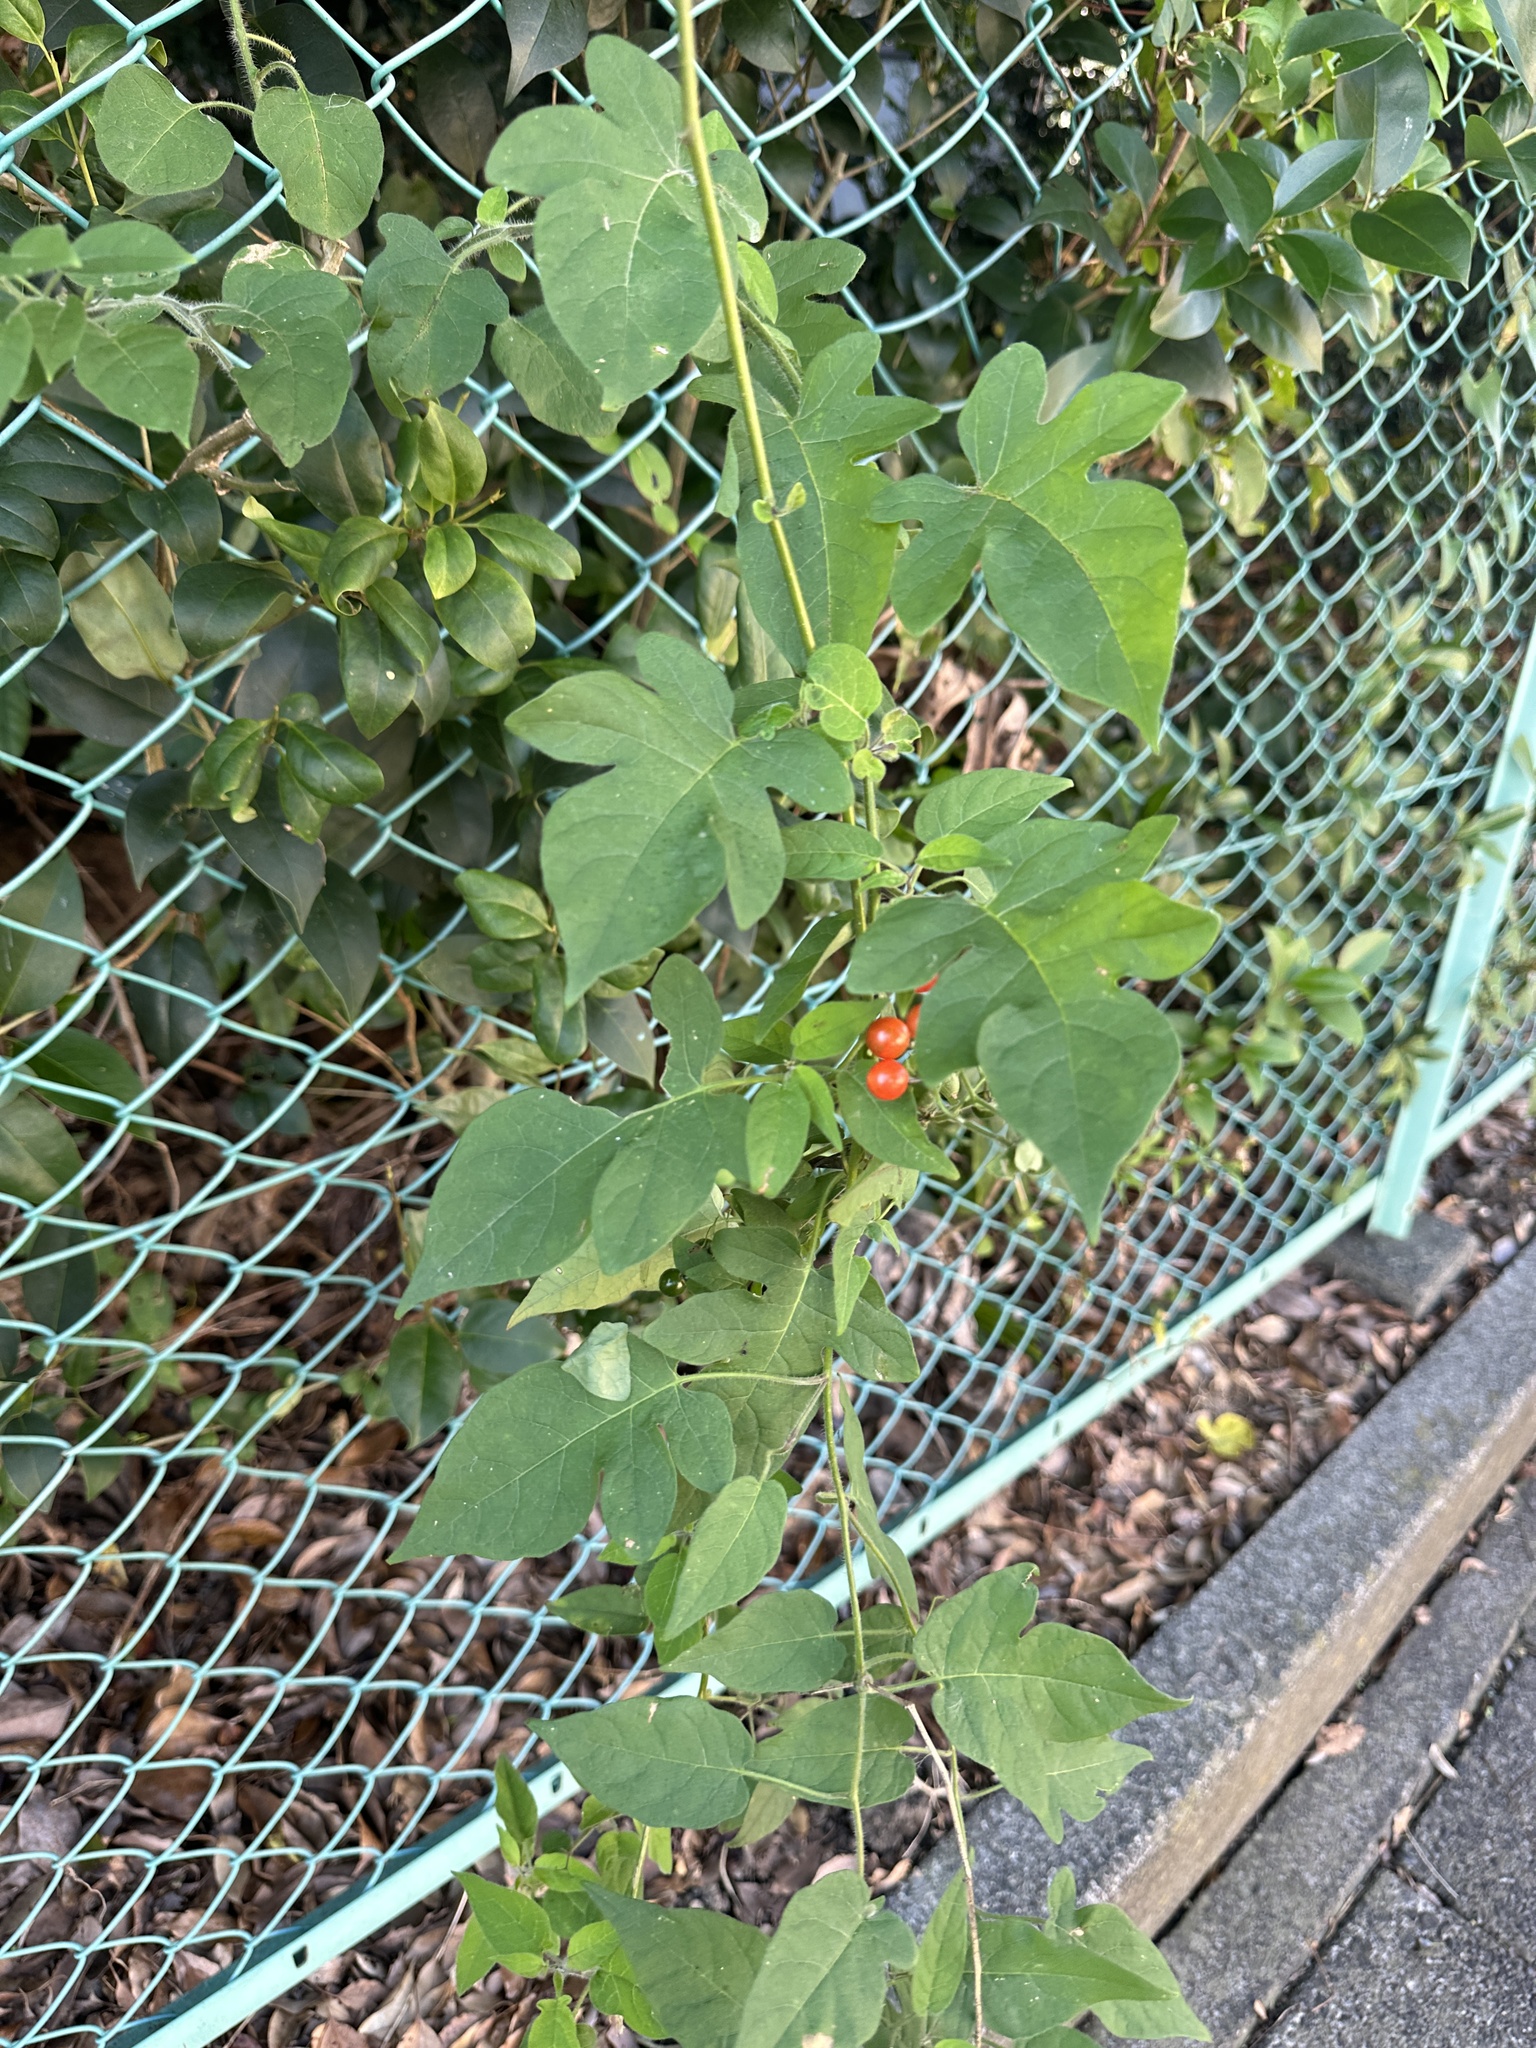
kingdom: Plantae
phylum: Tracheophyta
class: Magnoliopsida
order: Solanales
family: Solanaceae
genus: Solanum
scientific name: Solanum lyratum
